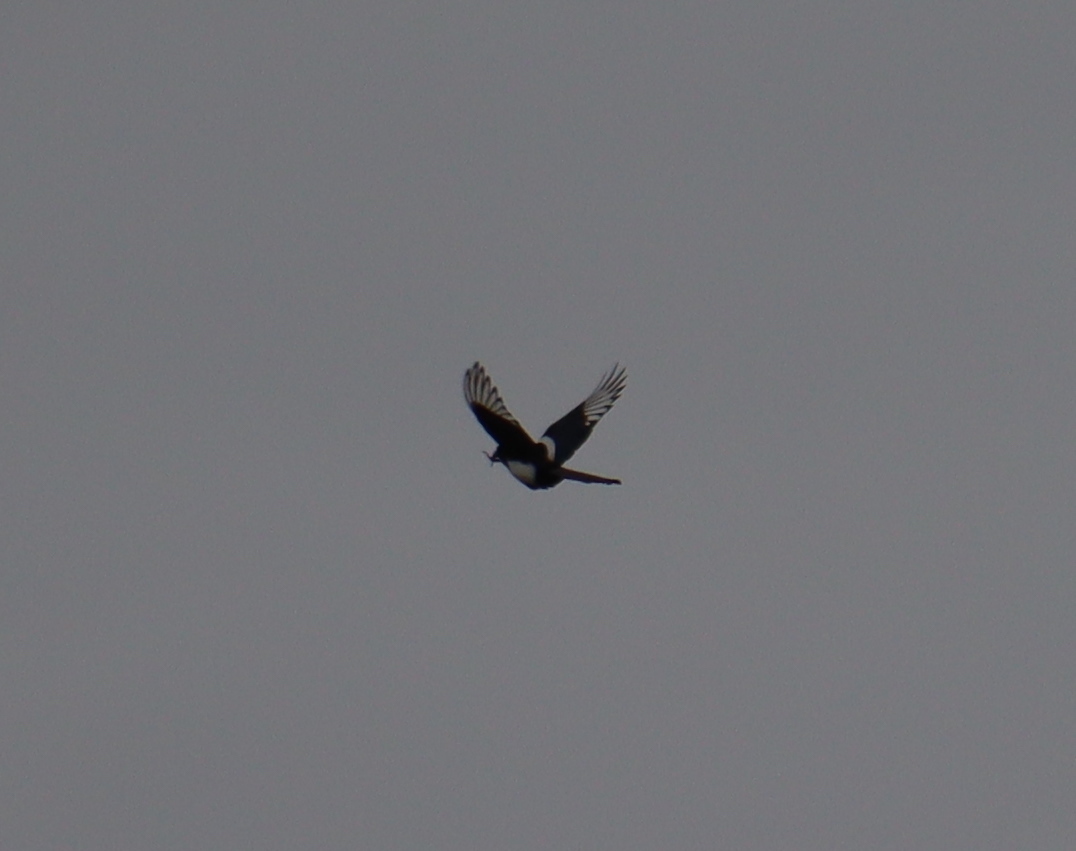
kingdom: Animalia
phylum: Chordata
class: Aves
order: Passeriformes
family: Corvidae
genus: Pica
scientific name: Pica pica
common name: Eurasian magpie
